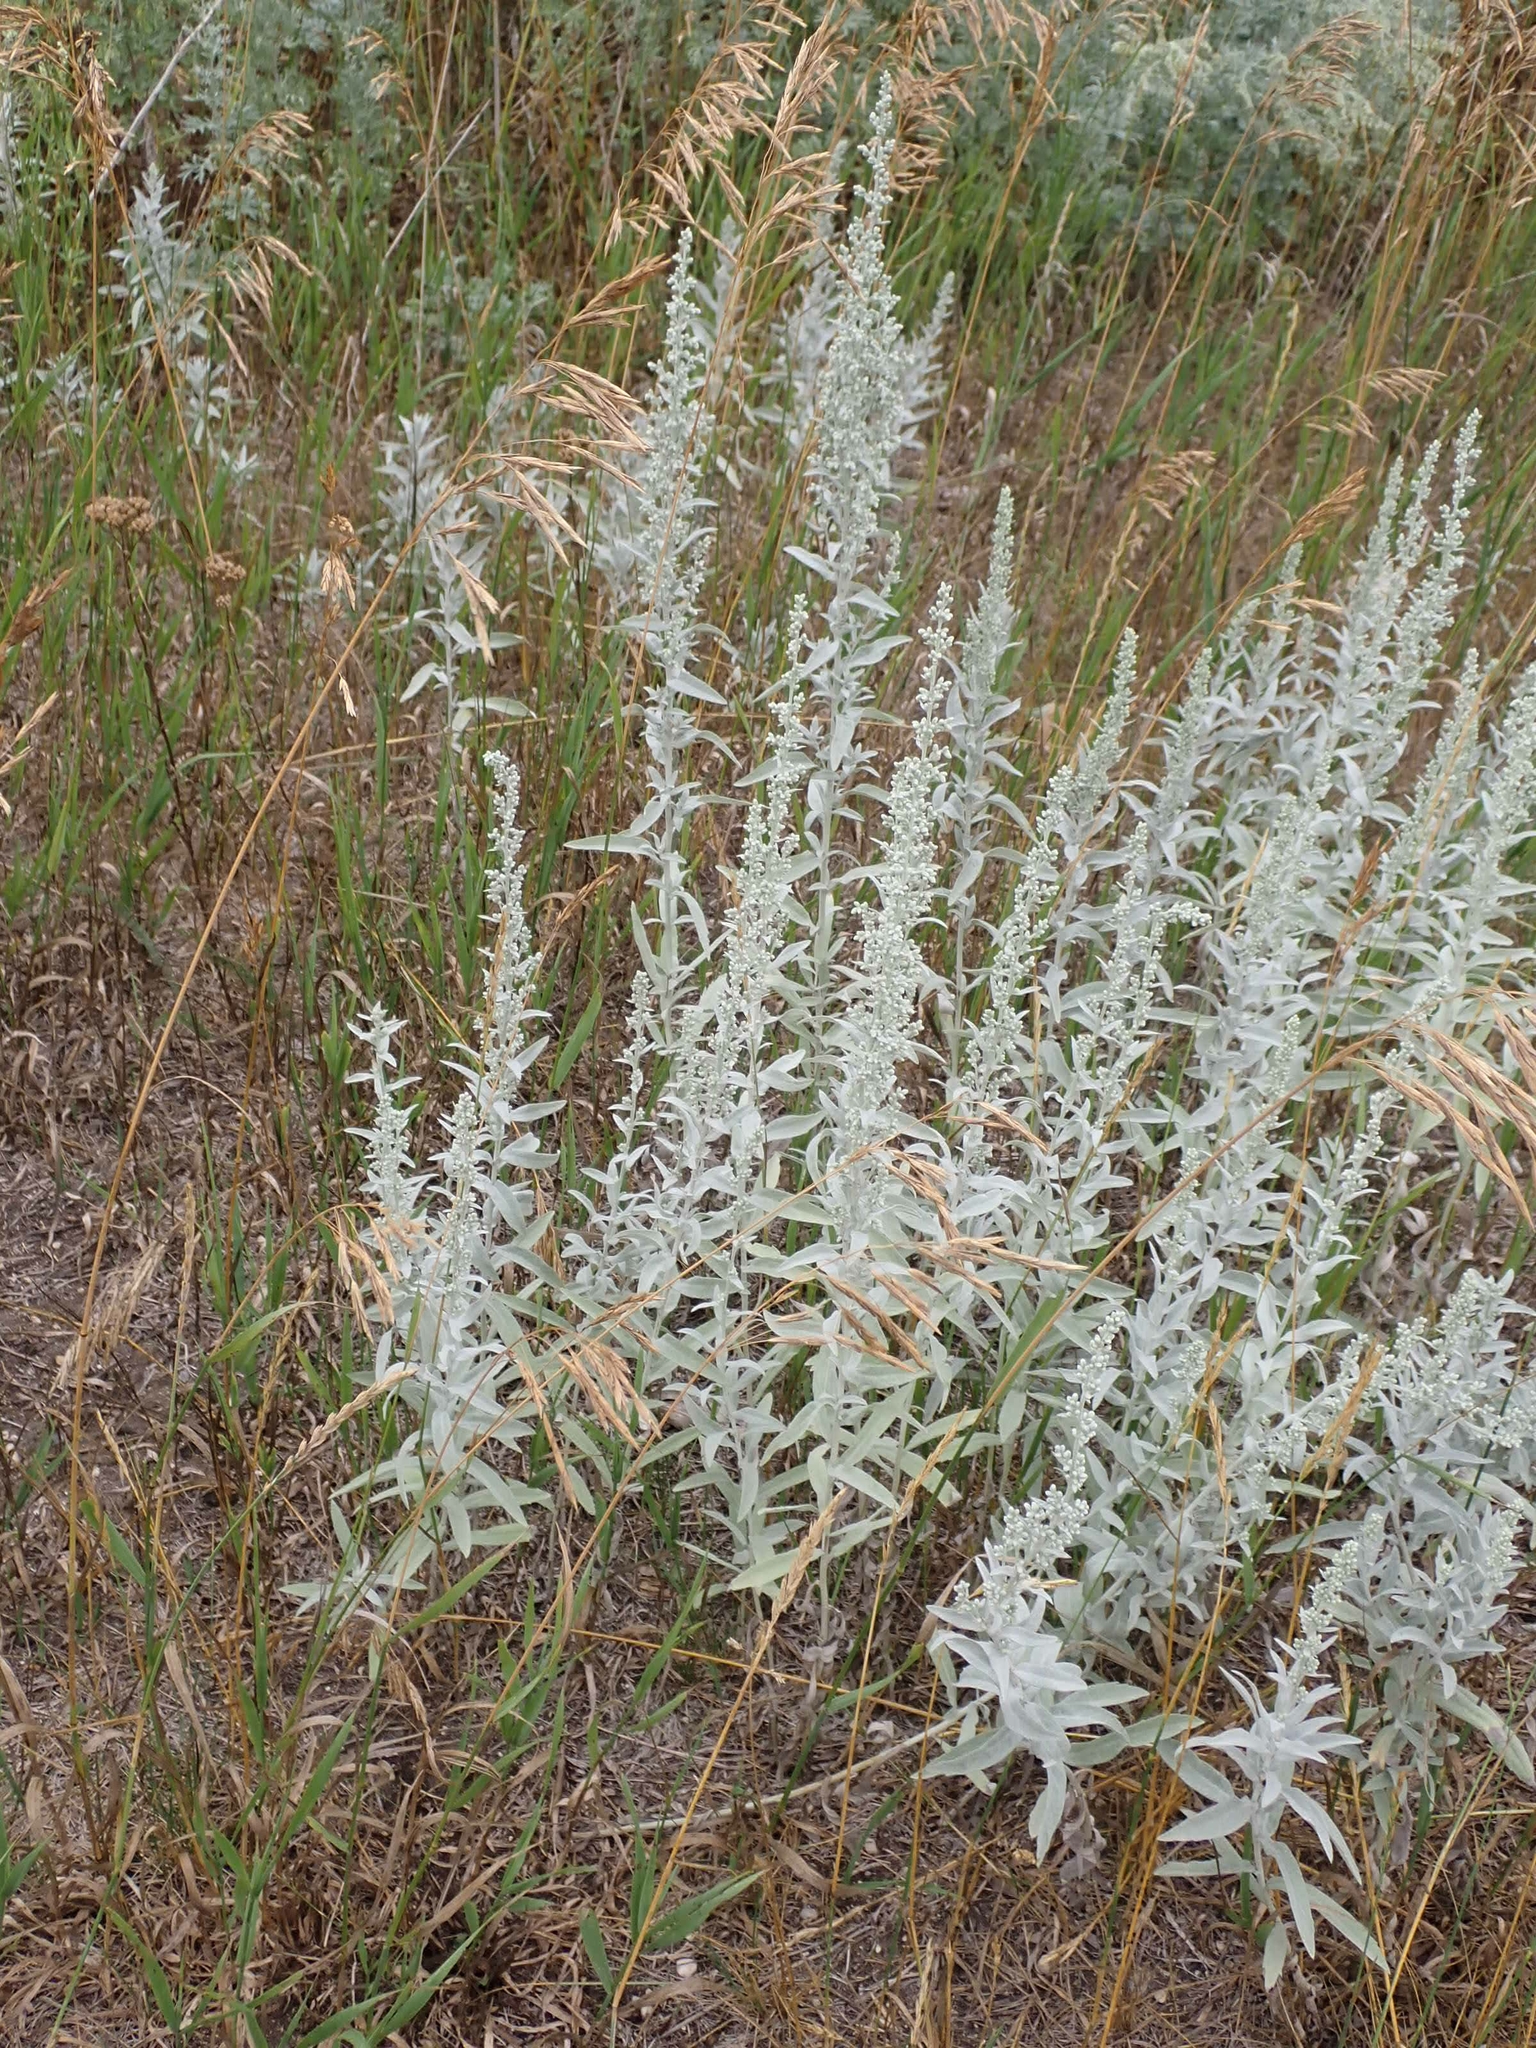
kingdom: Plantae
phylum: Tracheophyta
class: Magnoliopsida
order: Asterales
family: Asteraceae
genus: Artemisia
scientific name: Artemisia ludoviciana
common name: Western mugwort
